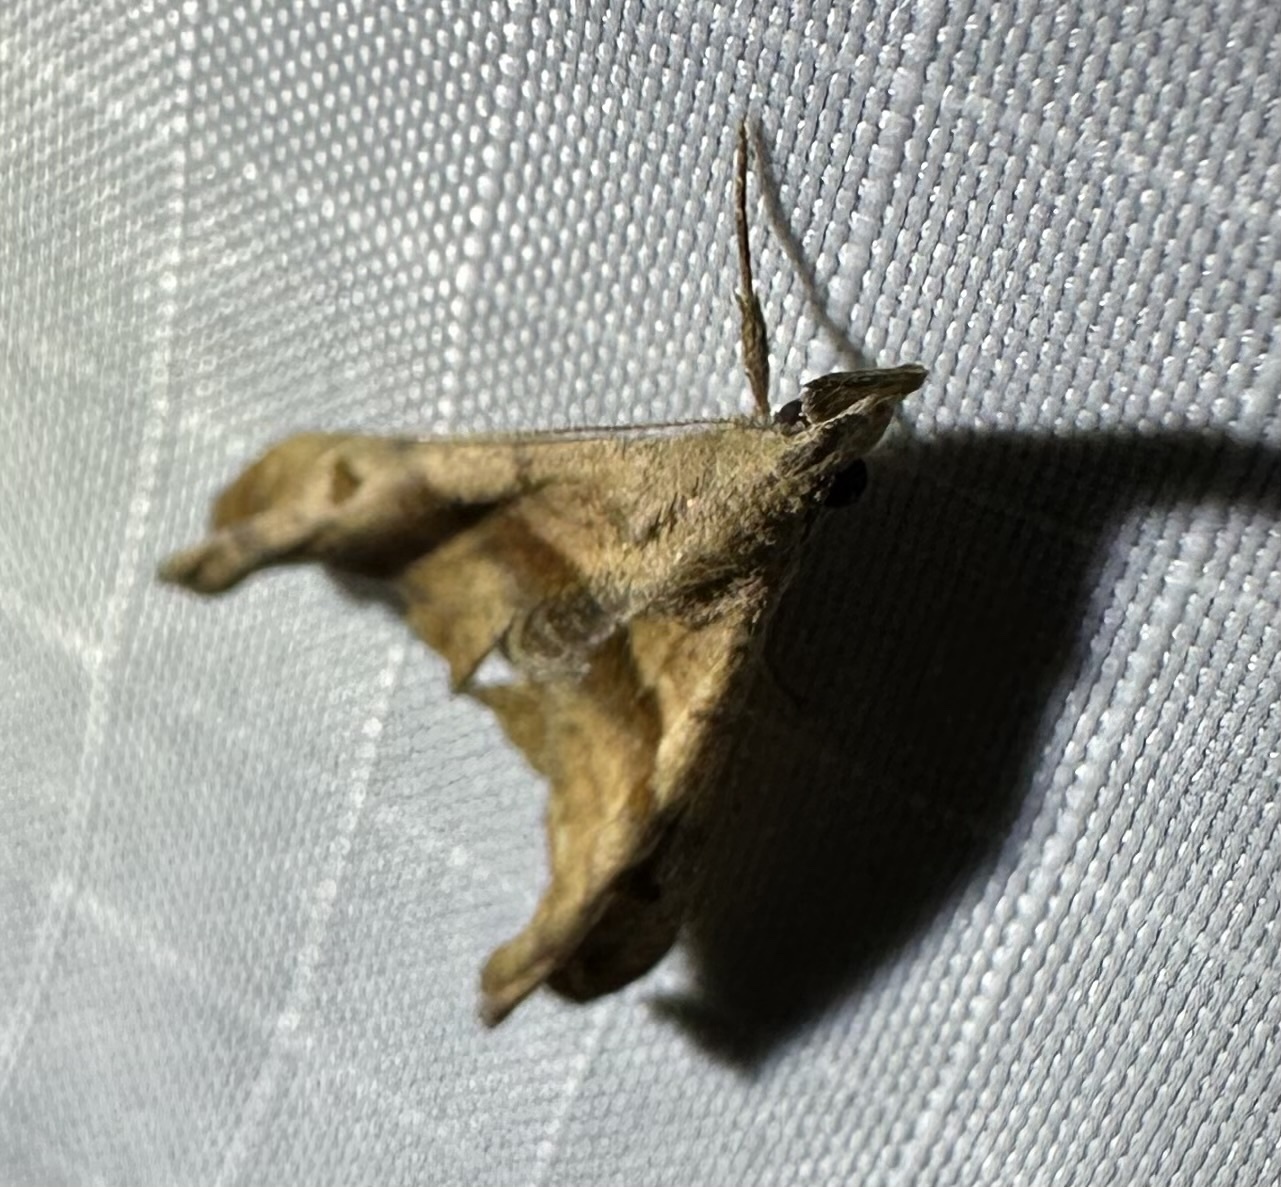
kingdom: Animalia
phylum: Arthropoda
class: Insecta
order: Lepidoptera
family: Erebidae
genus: Palthis
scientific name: Palthis angulalis
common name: Dark-spotted palthis moth
